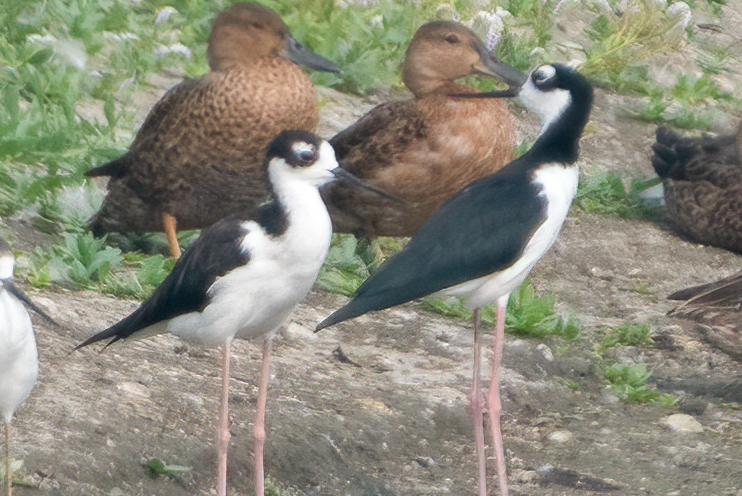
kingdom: Animalia
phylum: Chordata
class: Aves
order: Charadriiformes
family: Recurvirostridae
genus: Himantopus
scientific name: Himantopus mexicanus
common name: Black-necked stilt
